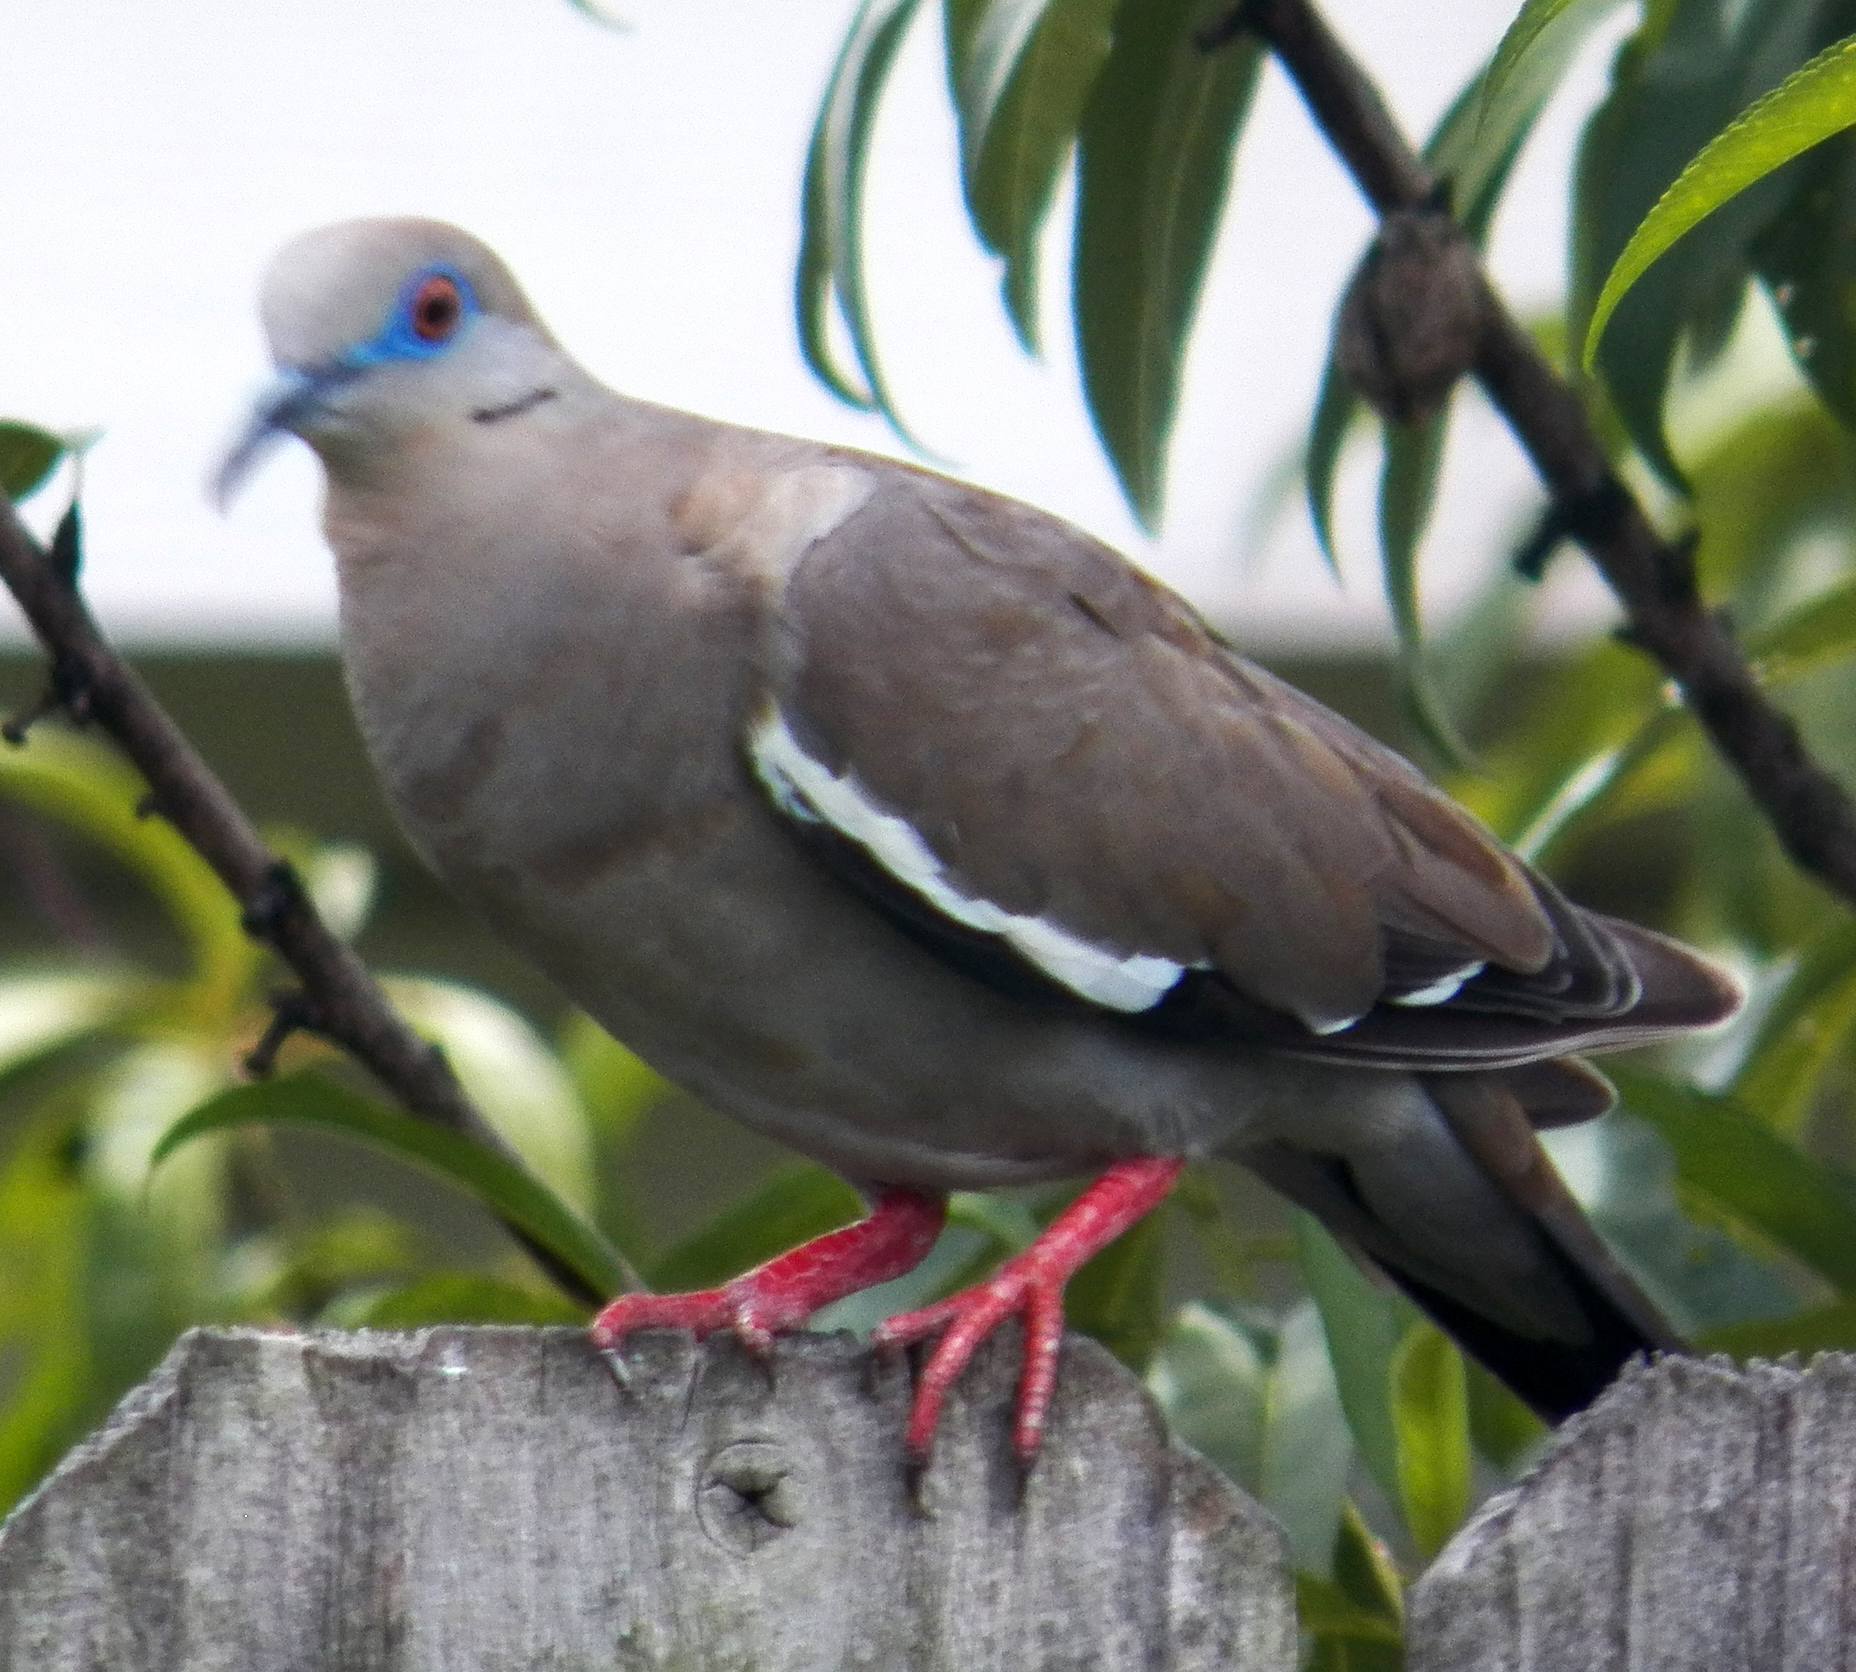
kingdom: Animalia
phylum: Chordata
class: Aves
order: Columbiformes
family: Columbidae
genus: Zenaida
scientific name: Zenaida asiatica
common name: White-winged dove
